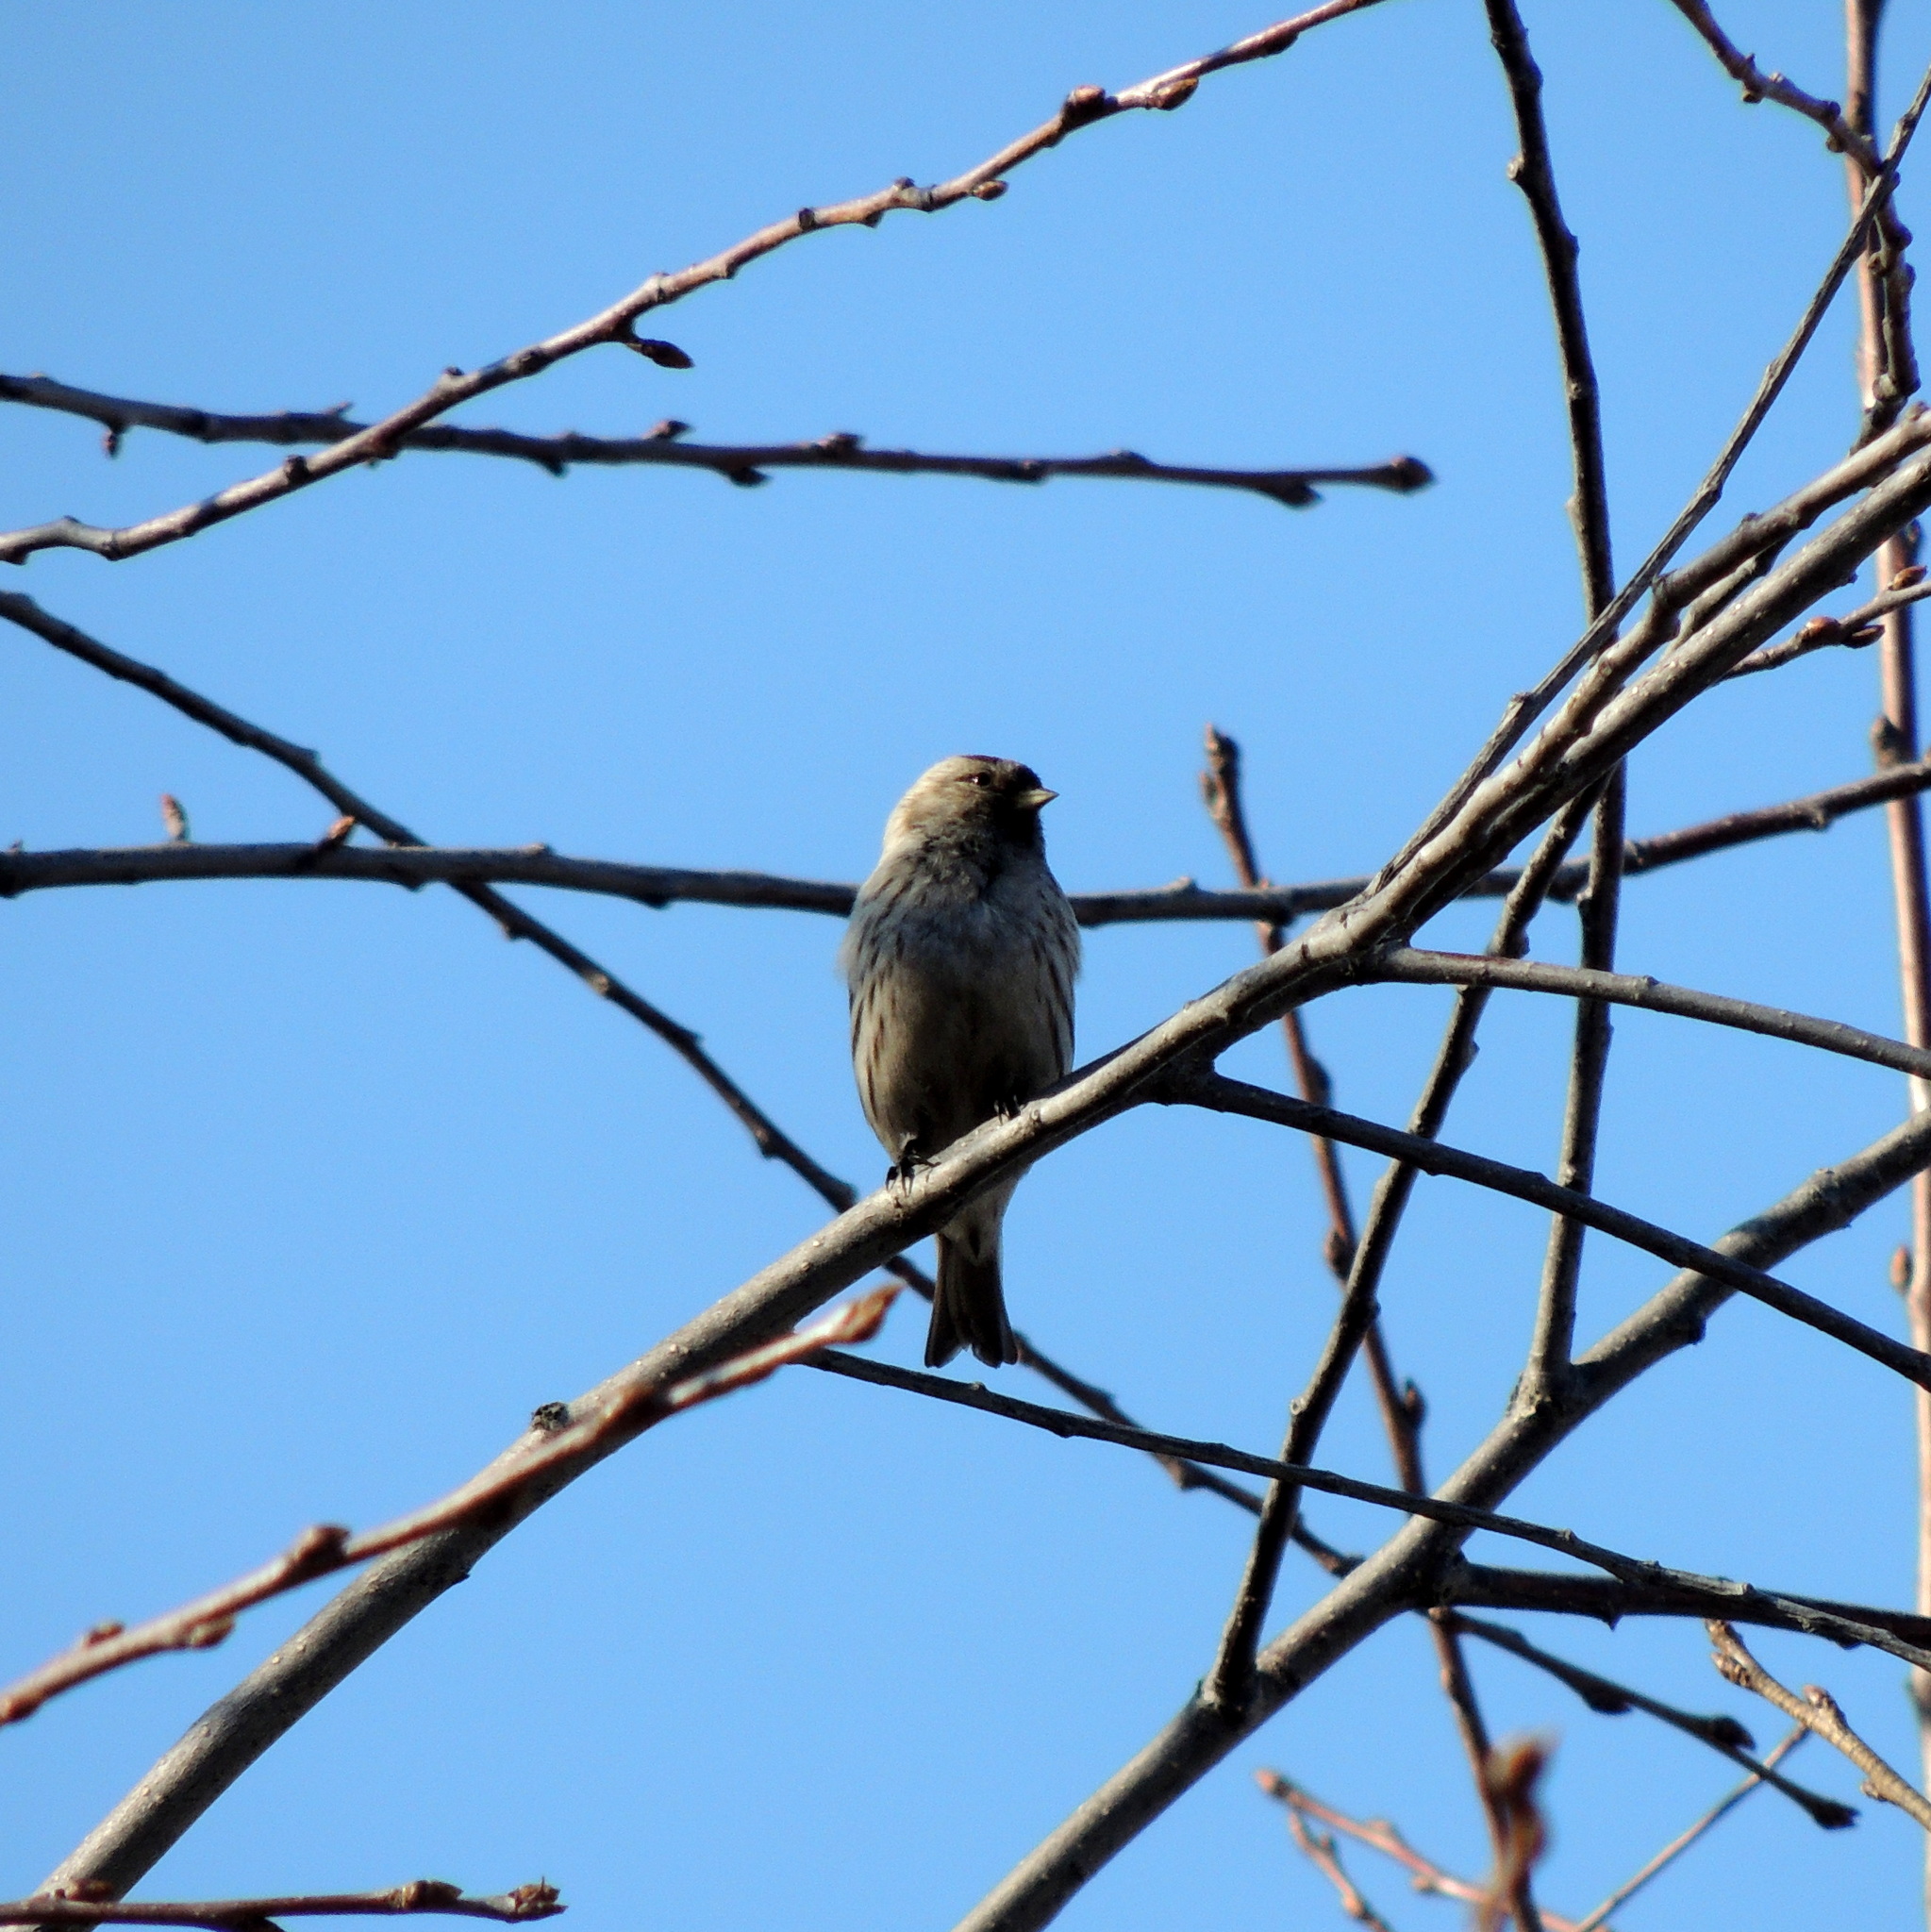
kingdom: Animalia
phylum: Chordata
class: Aves
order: Passeriformes
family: Fringillidae
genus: Acanthis
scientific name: Acanthis flammea
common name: Common redpoll
